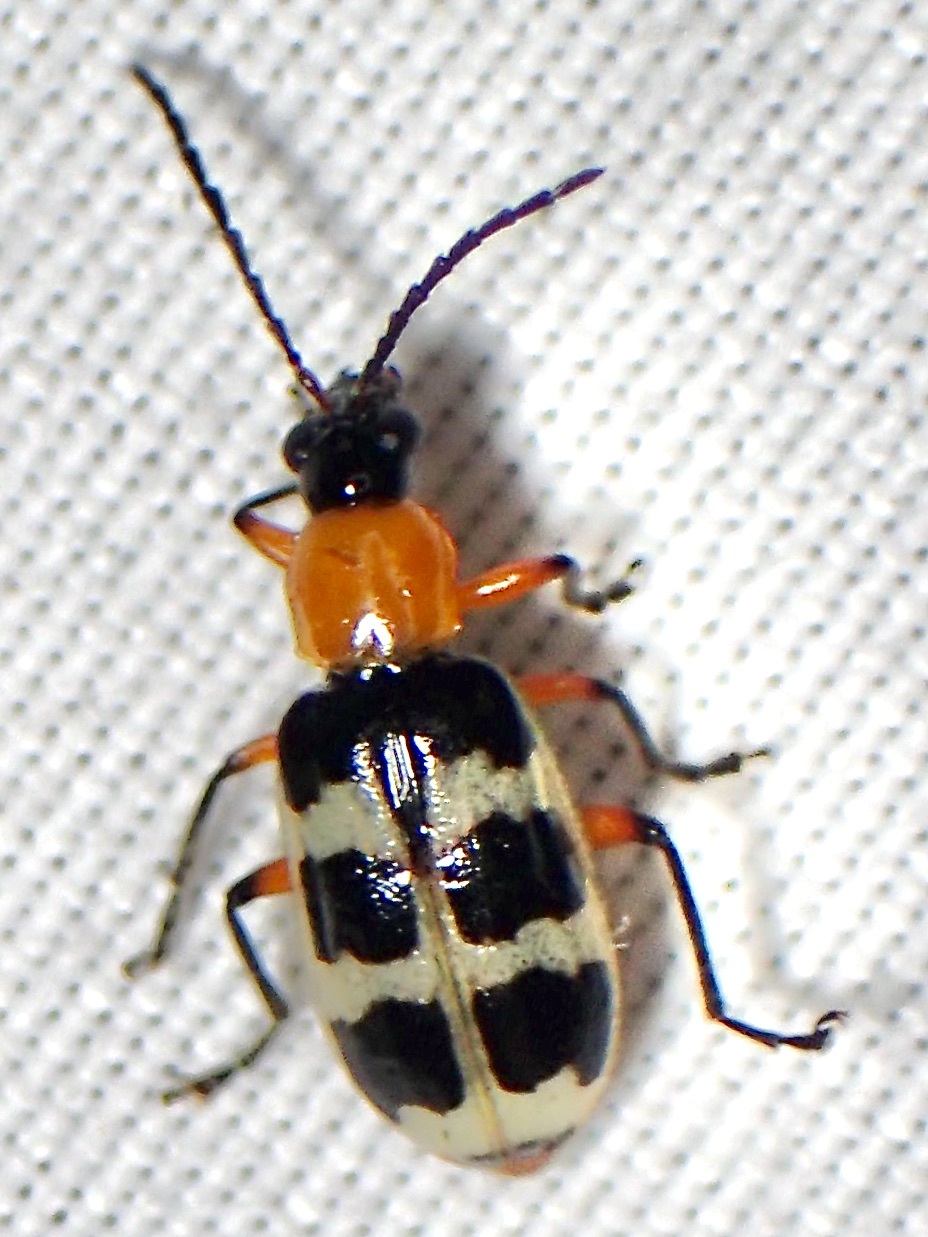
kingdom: Animalia
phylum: Arthropoda
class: Insecta
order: Coleoptera
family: Chrysomelidae
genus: Paranapiacaba
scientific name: Paranapiacaba tricincta
